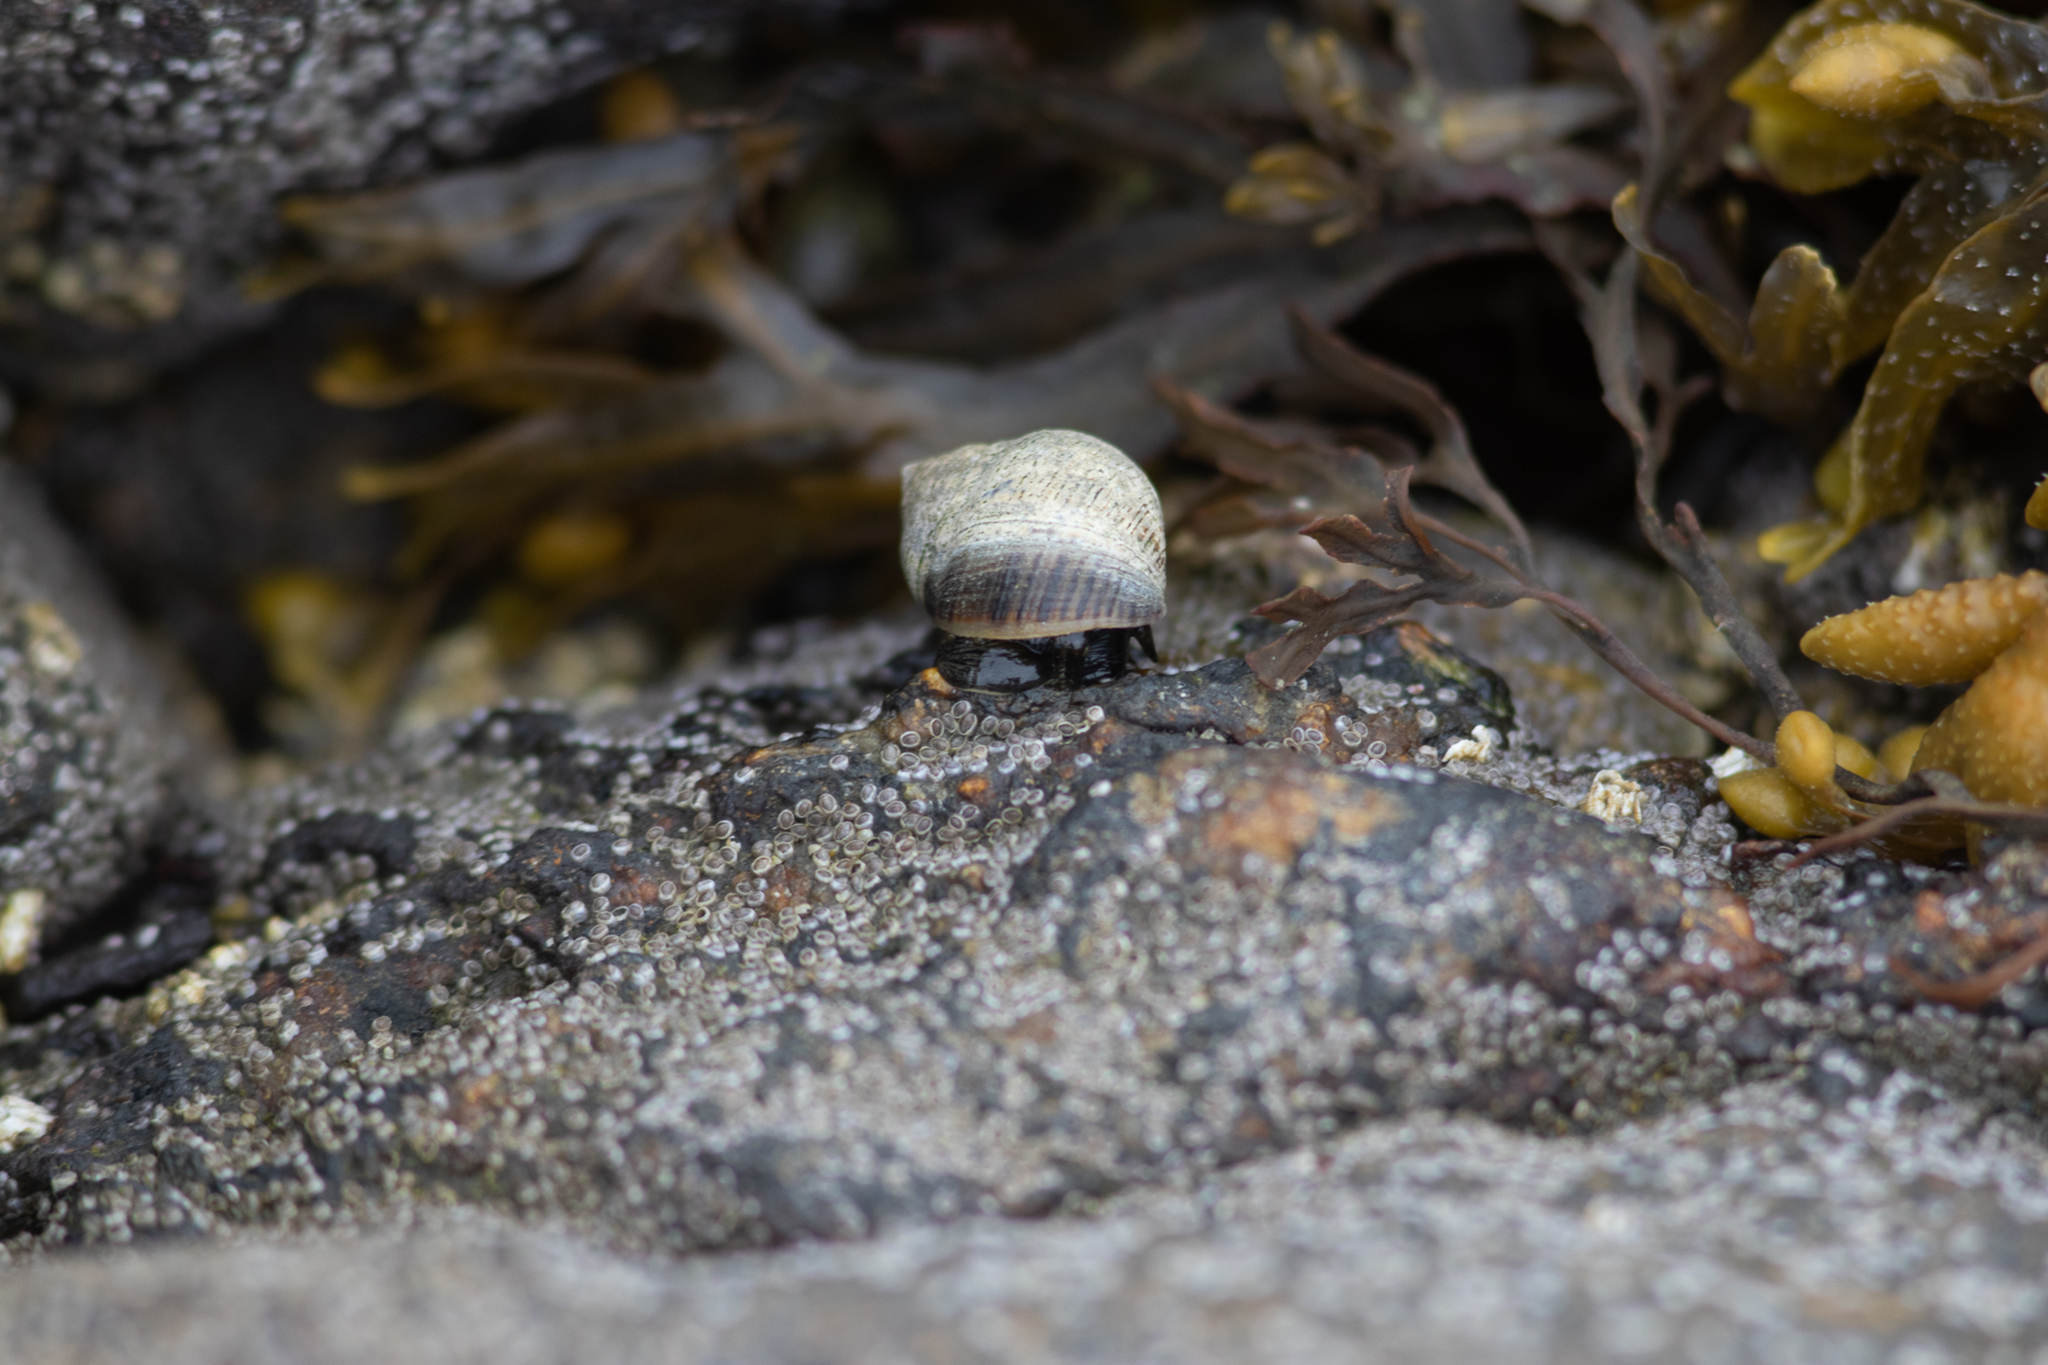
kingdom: Animalia
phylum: Mollusca
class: Gastropoda
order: Littorinimorpha
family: Littorinidae
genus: Littorina
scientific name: Littorina littorea
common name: Common periwinkle
